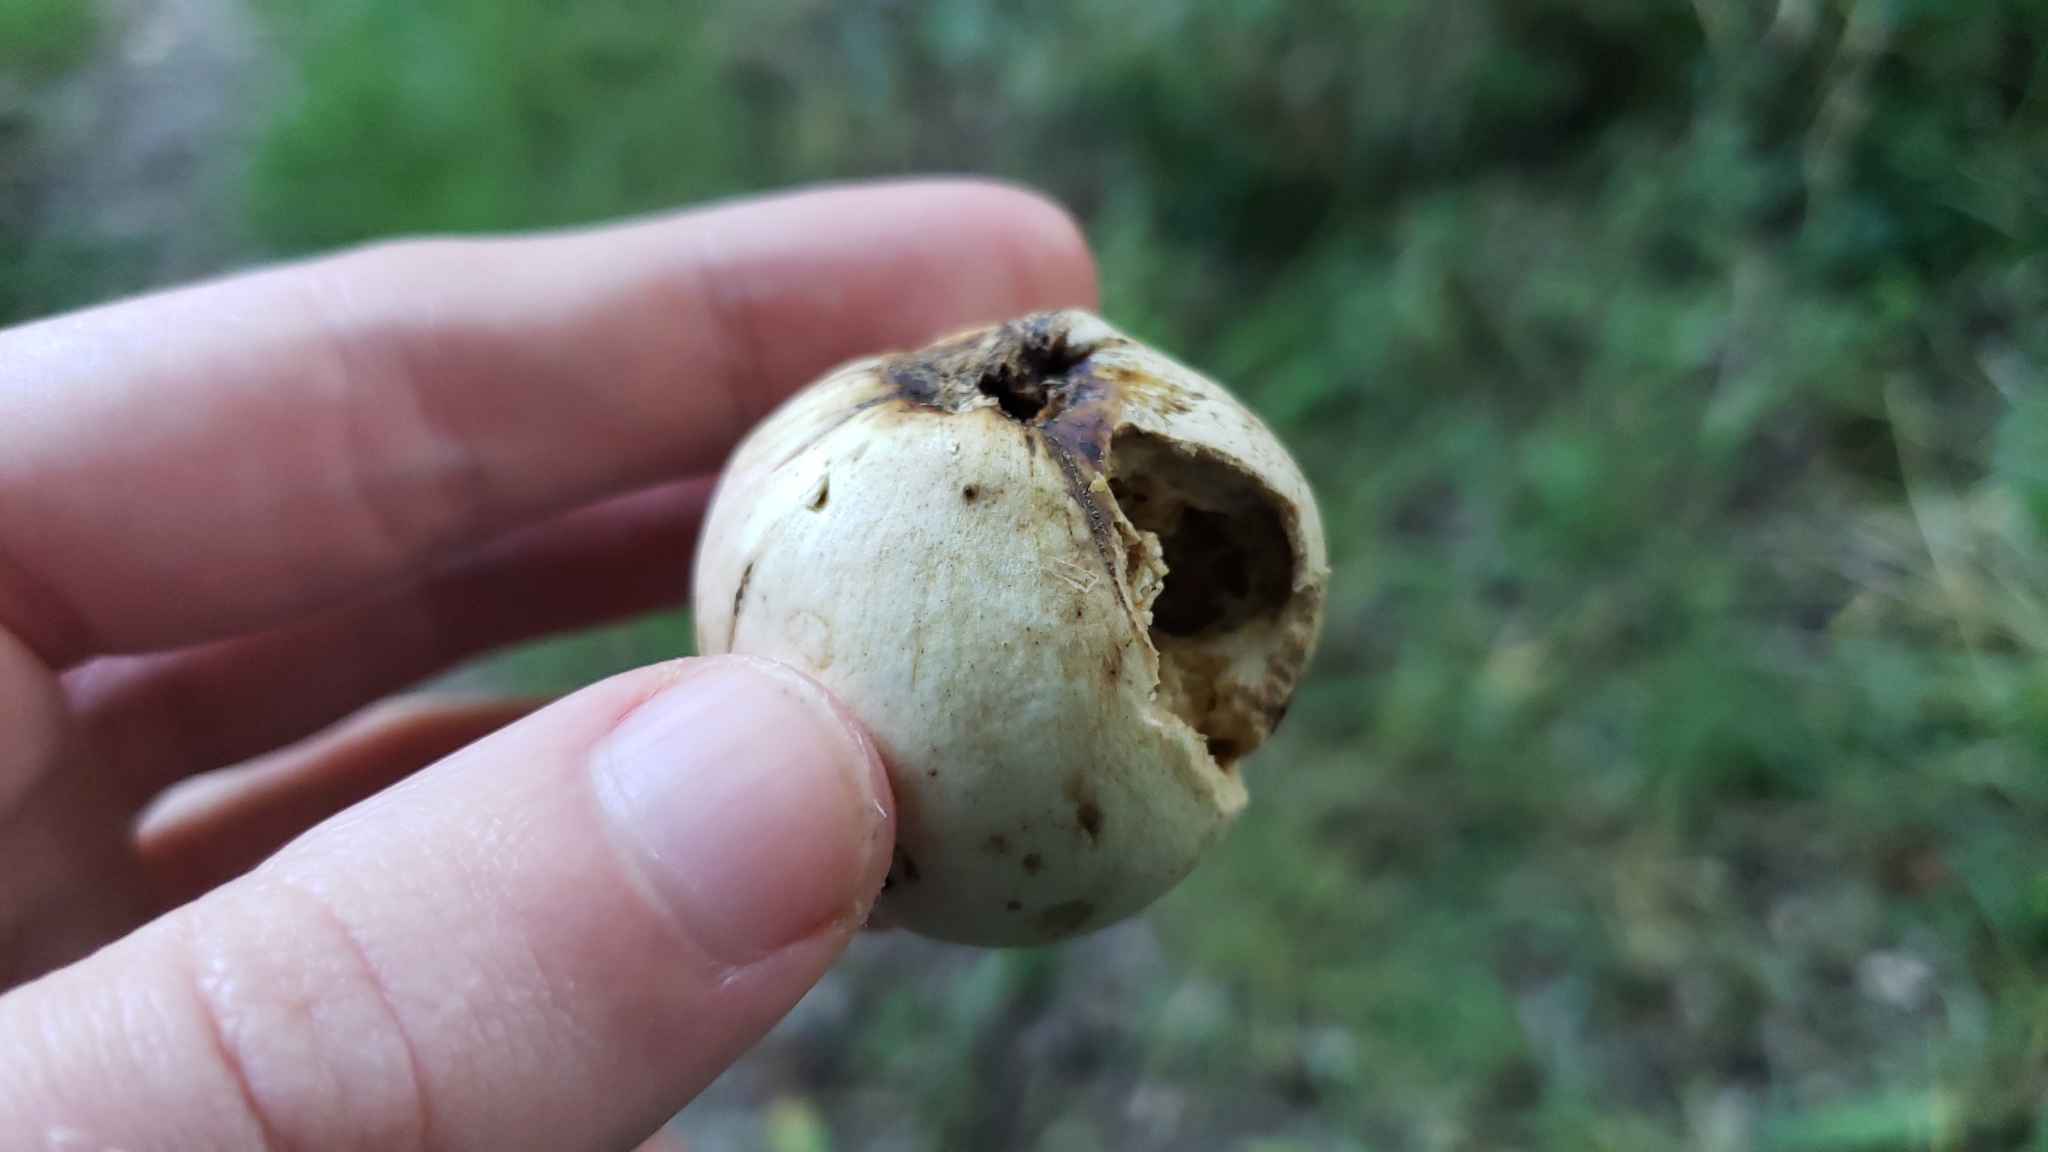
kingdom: Animalia
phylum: Arthropoda
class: Insecta
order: Hymenoptera
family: Cynipidae
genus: Andricus
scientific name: Andricus quercuscalifornicus
